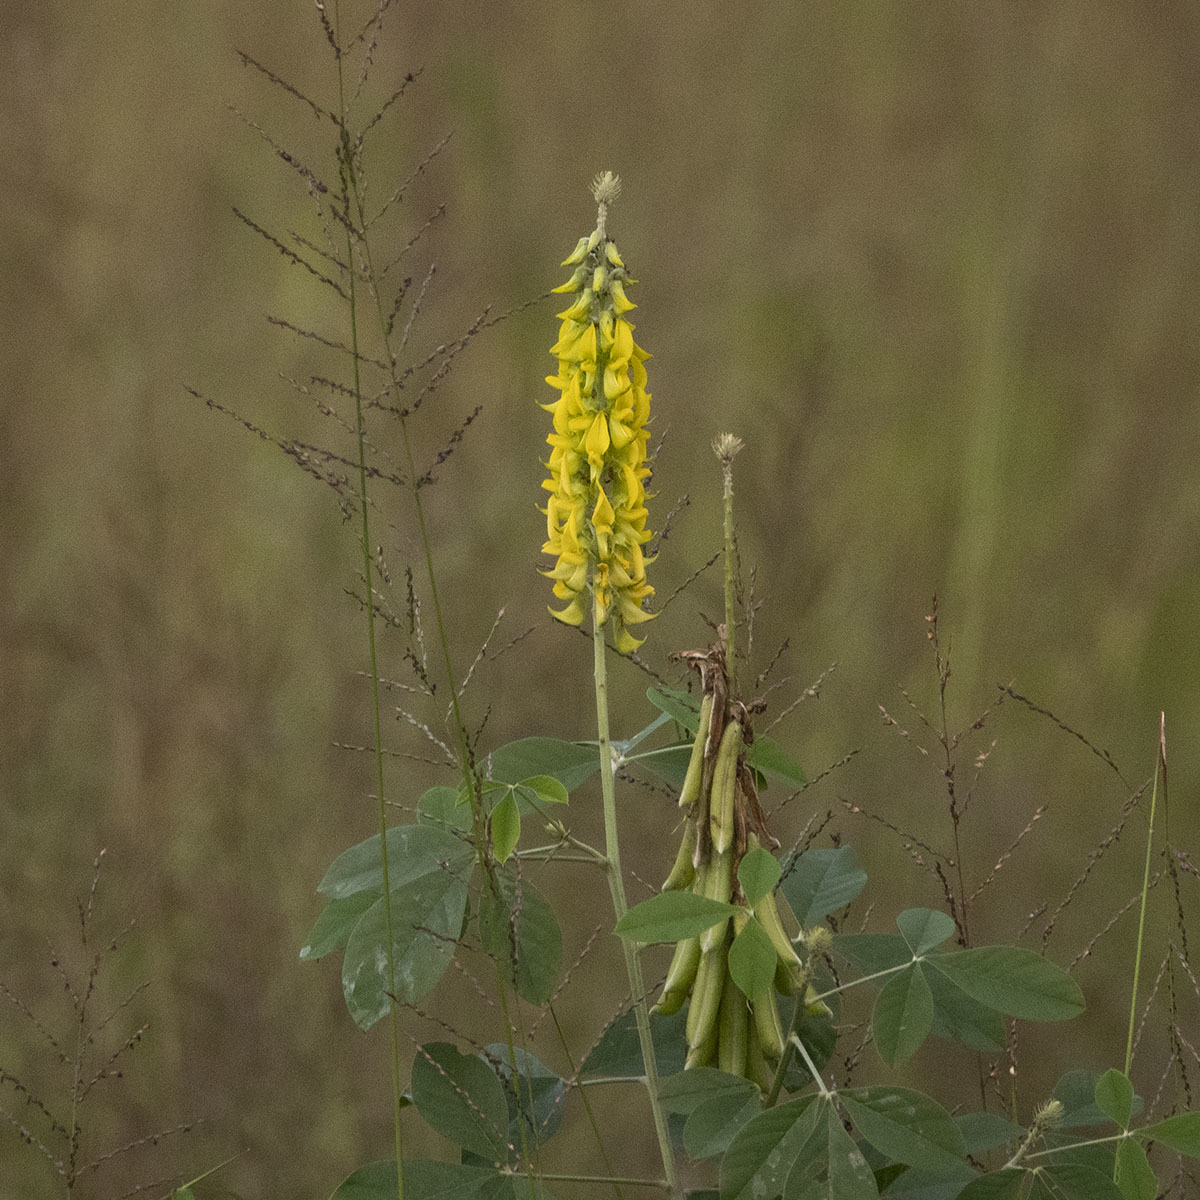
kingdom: Plantae
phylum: Tracheophyta
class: Magnoliopsida
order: Fabales
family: Fabaceae
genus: Crotalaria
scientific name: Crotalaria pallida
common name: Smooth rattlebox
